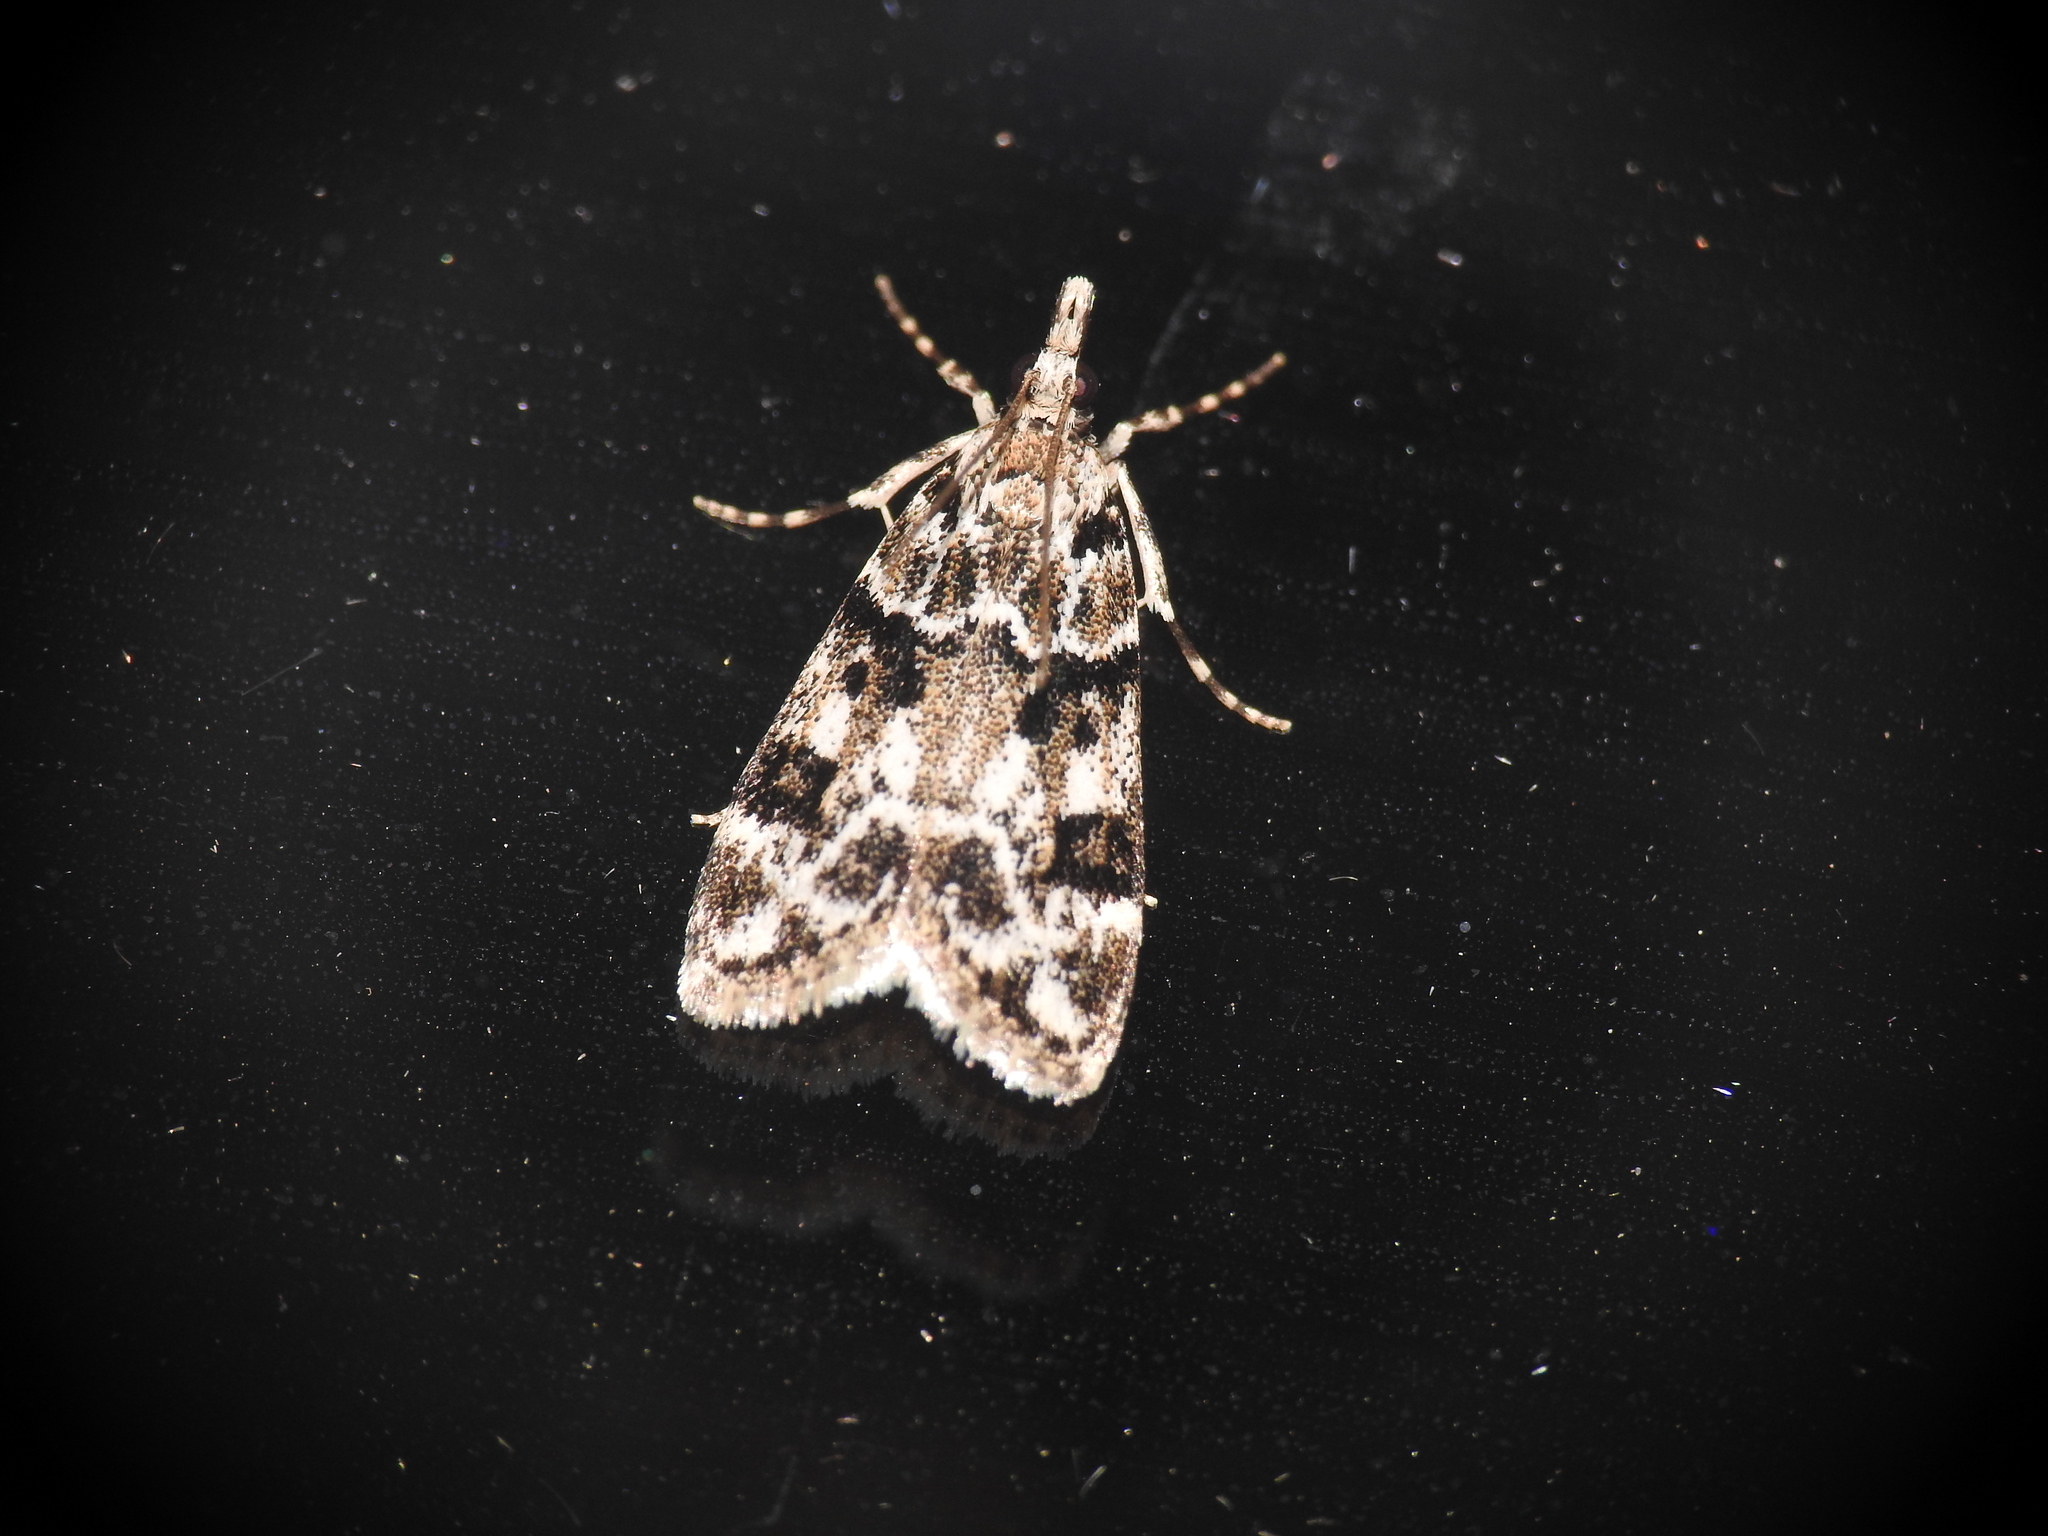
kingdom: Animalia
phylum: Arthropoda
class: Insecta
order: Lepidoptera
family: Crambidae
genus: Eudonia
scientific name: Eudonia delunella
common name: Pied grey
